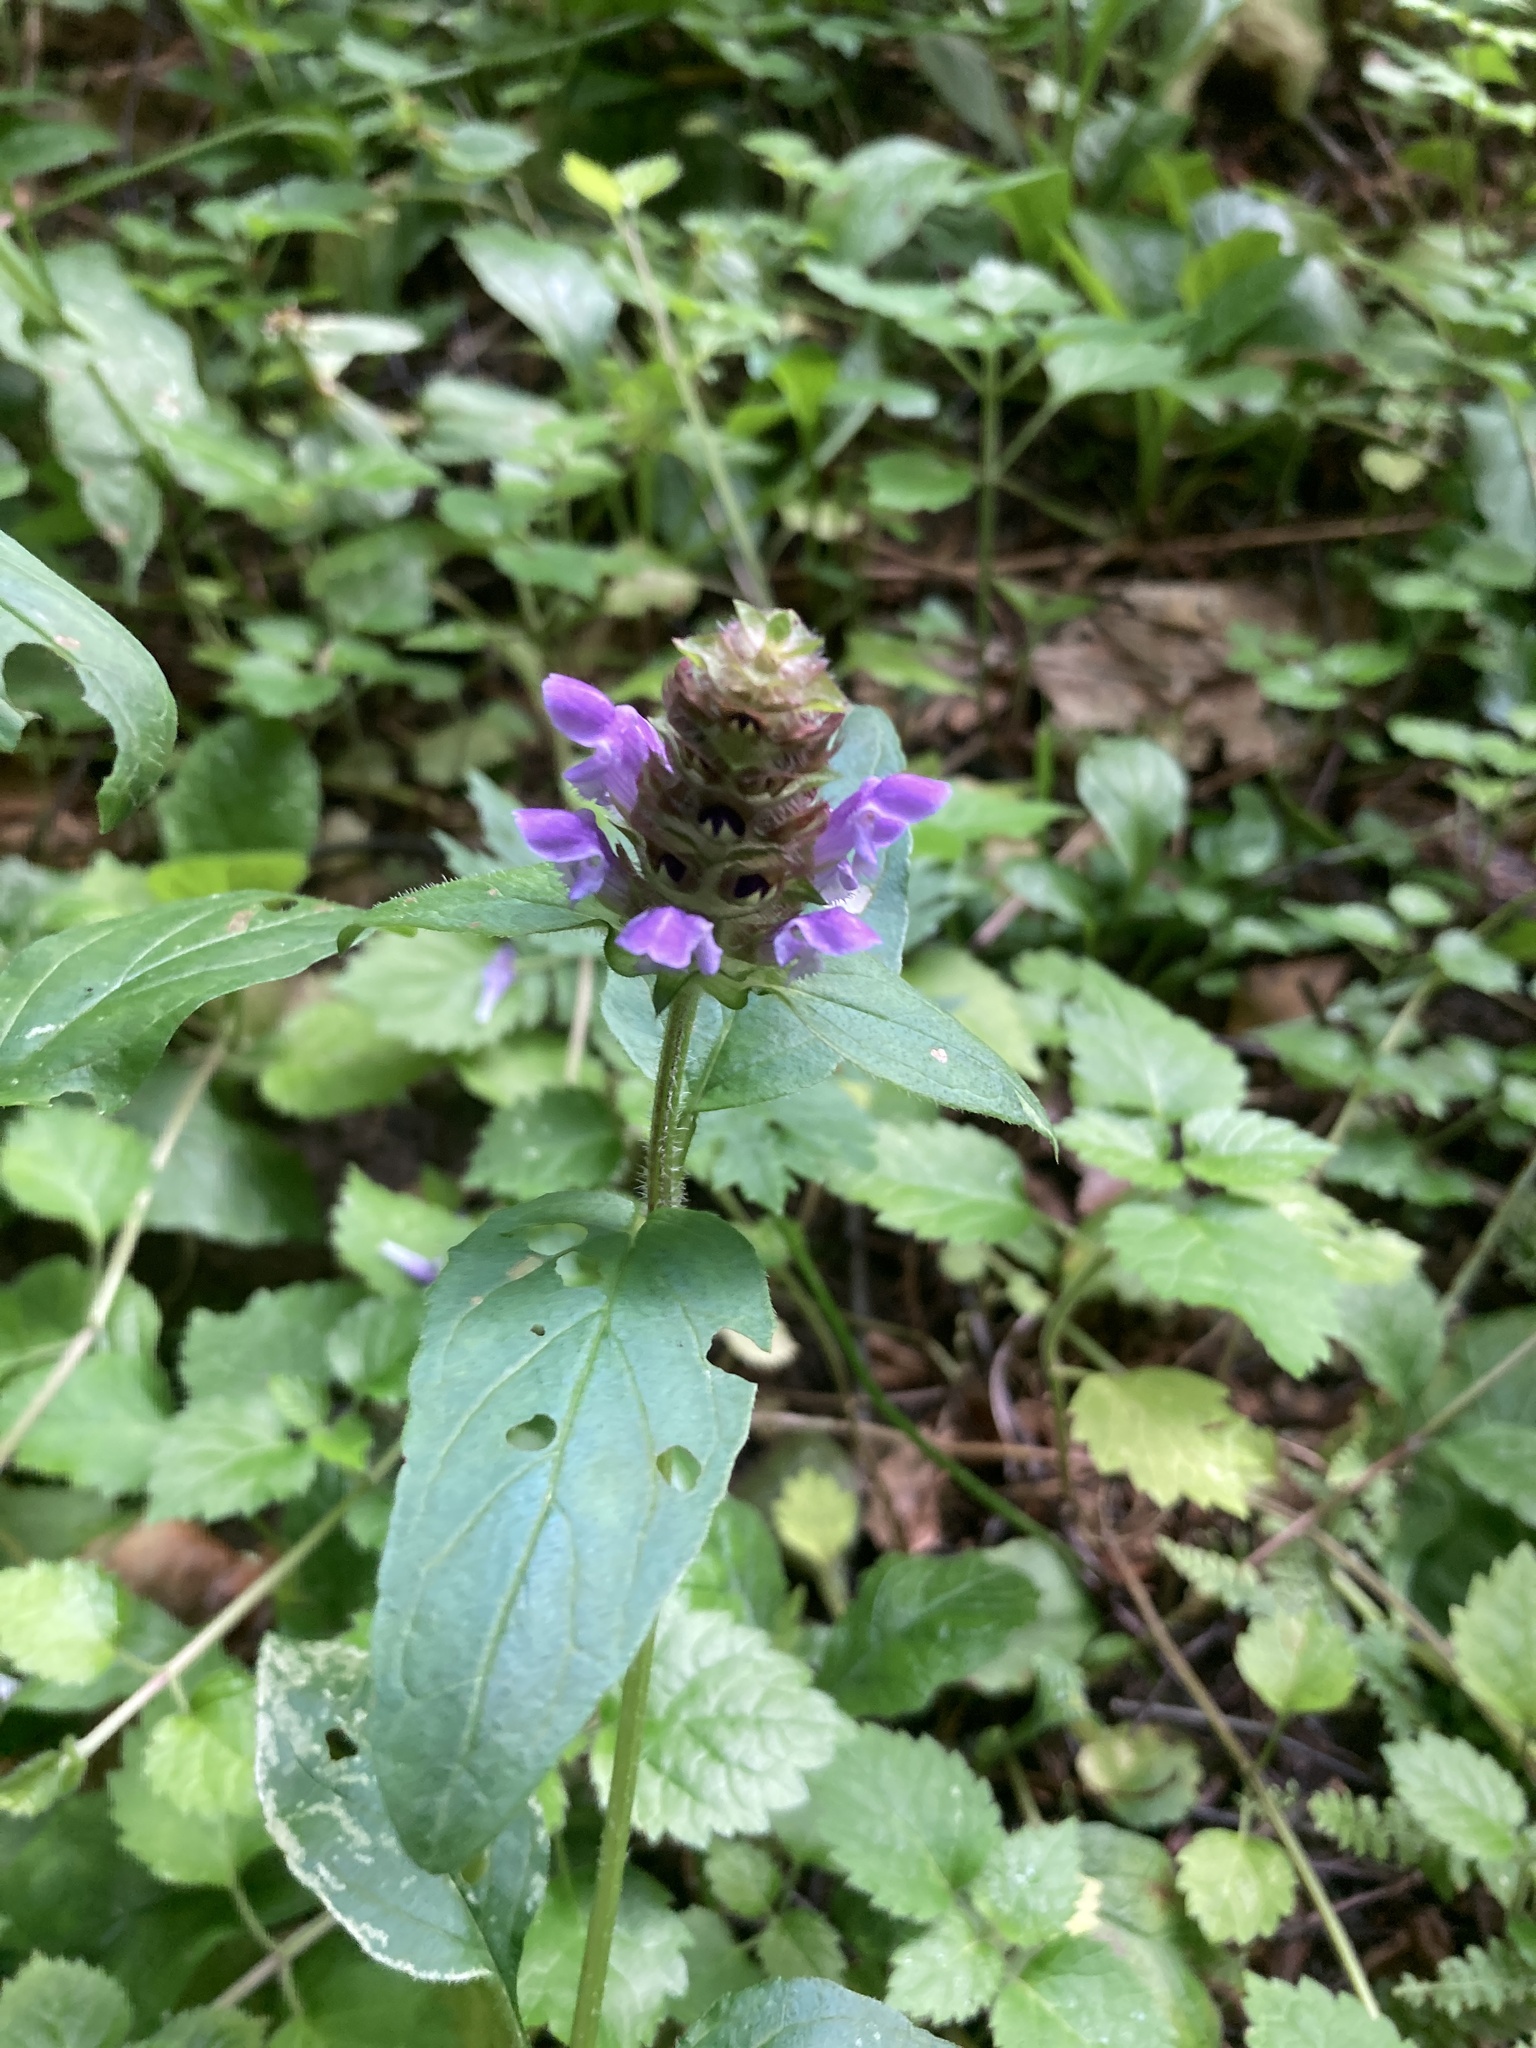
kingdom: Plantae
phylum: Tracheophyta
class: Magnoliopsida
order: Lamiales
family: Lamiaceae
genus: Prunella
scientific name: Prunella vulgaris
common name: Heal-all
